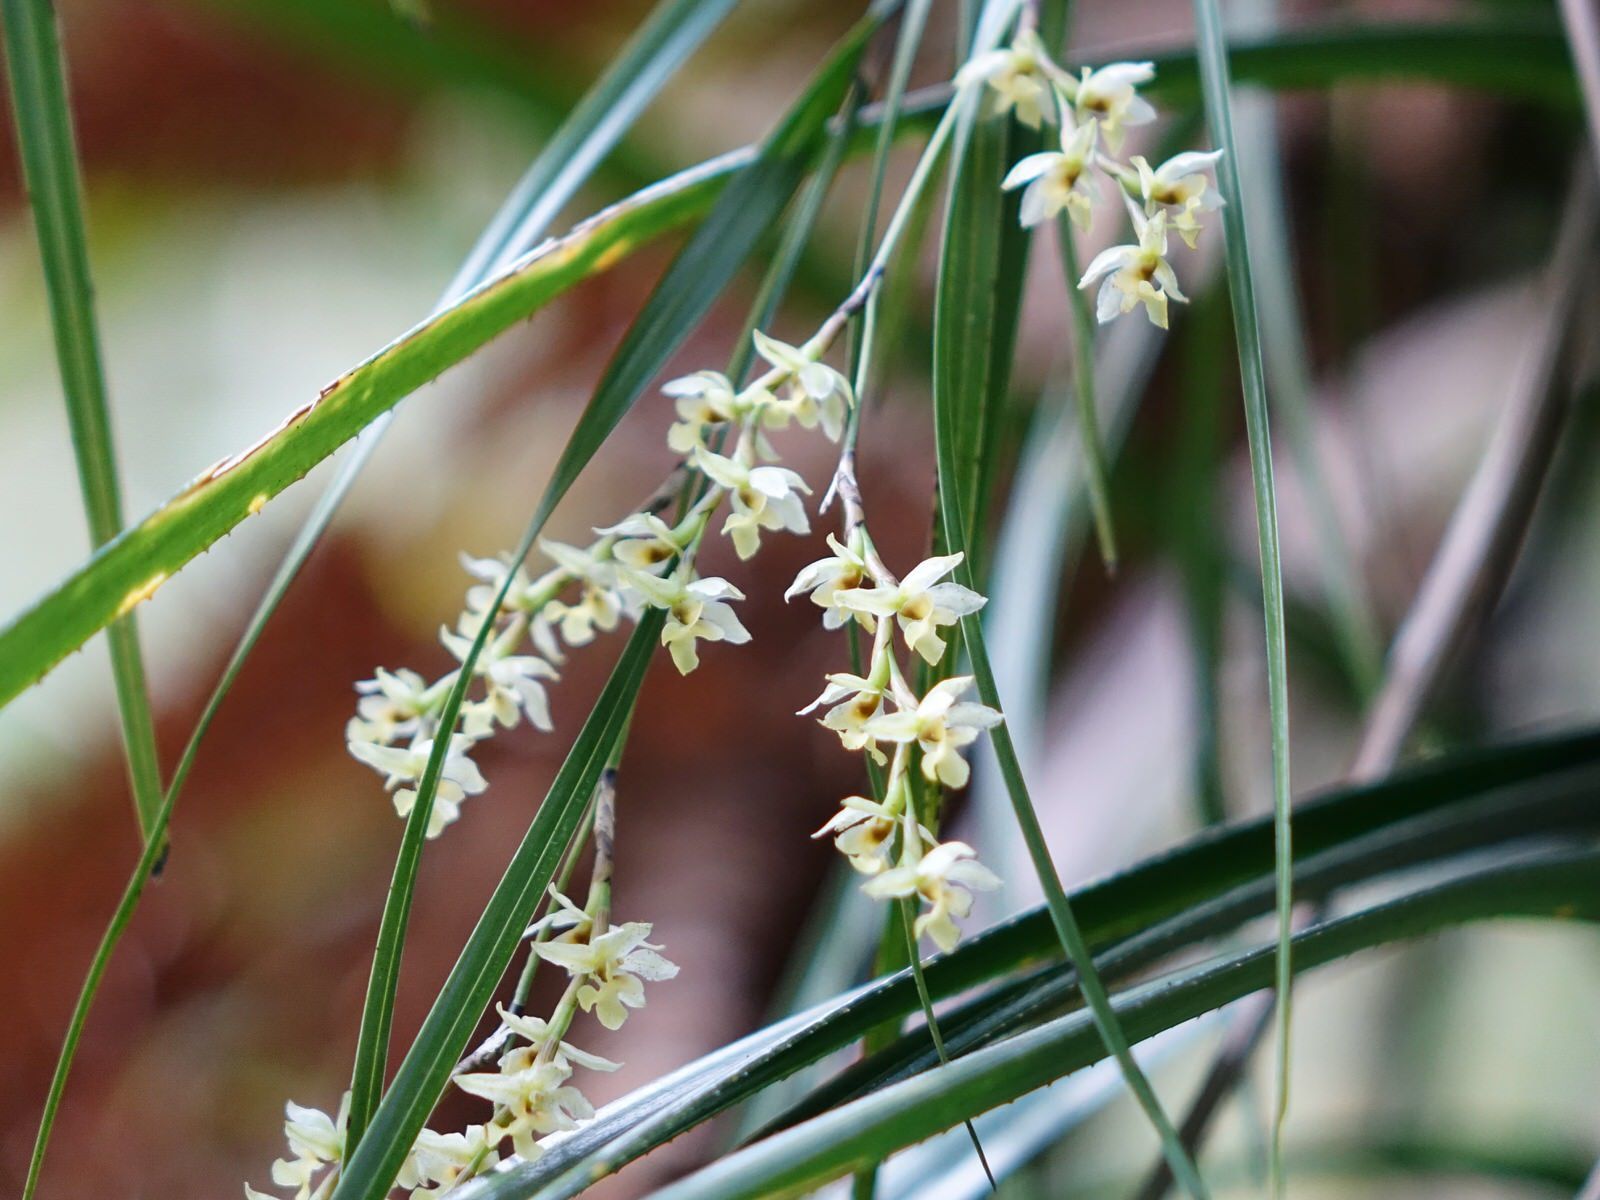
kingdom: Plantae
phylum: Tracheophyta
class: Liliopsida
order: Asparagales
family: Orchidaceae
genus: Earina
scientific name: Earina mucronata
